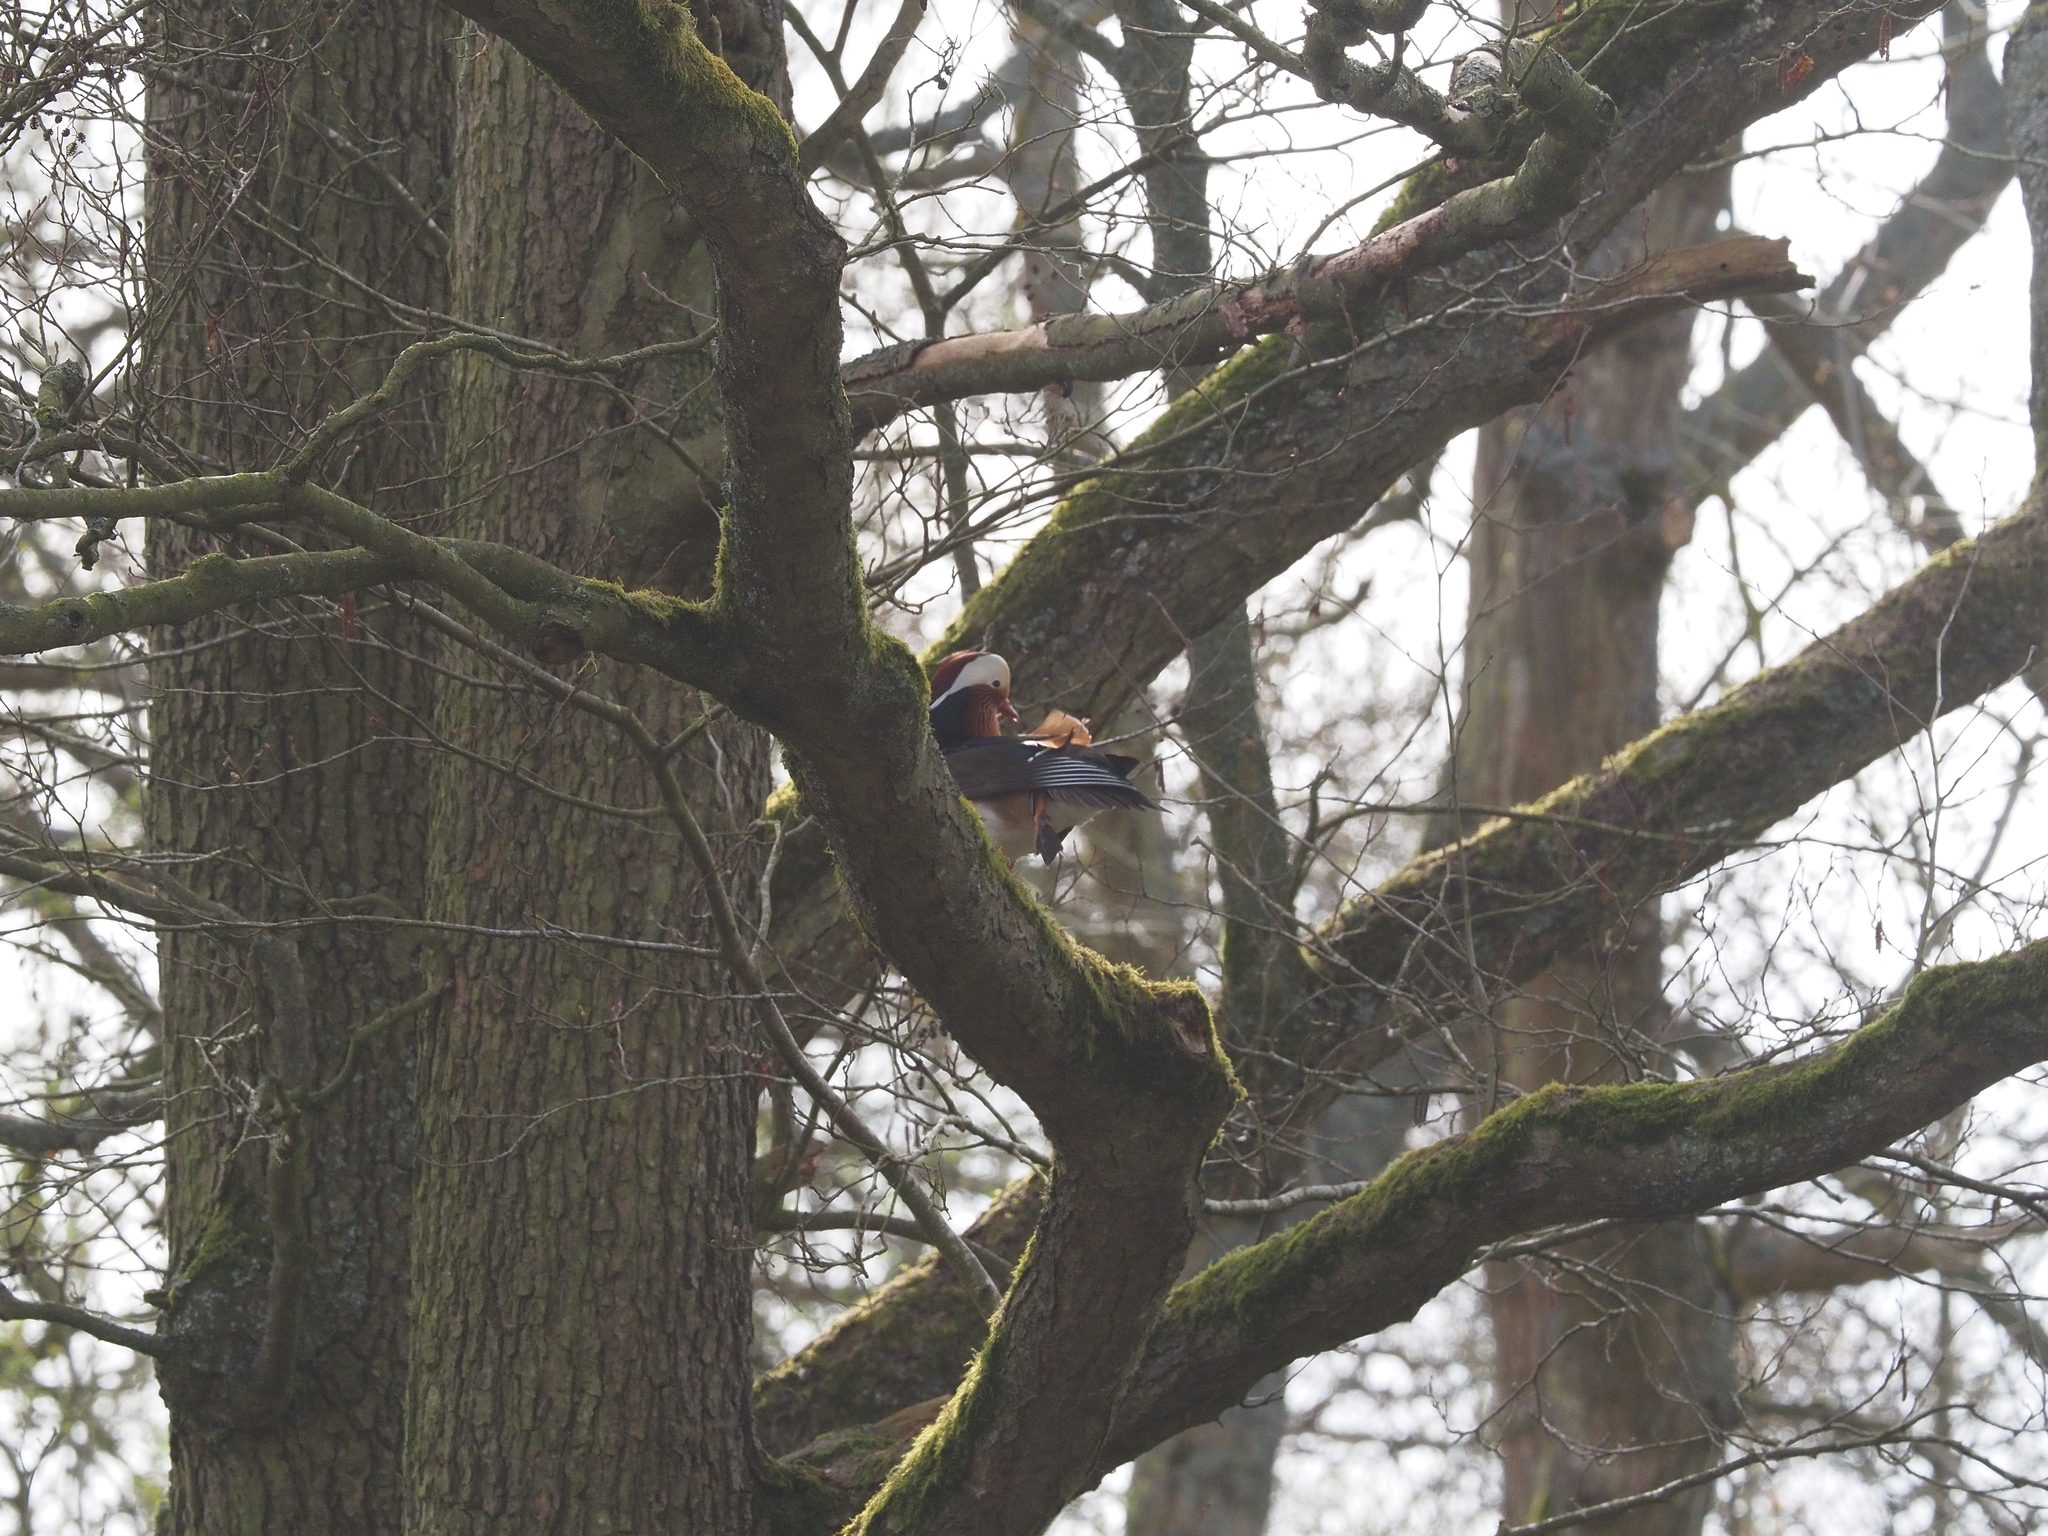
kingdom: Animalia
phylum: Chordata
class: Aves
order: Anseriformes
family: Anatidae
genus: Aix
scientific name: Aix galericulata
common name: Mandarin duck
